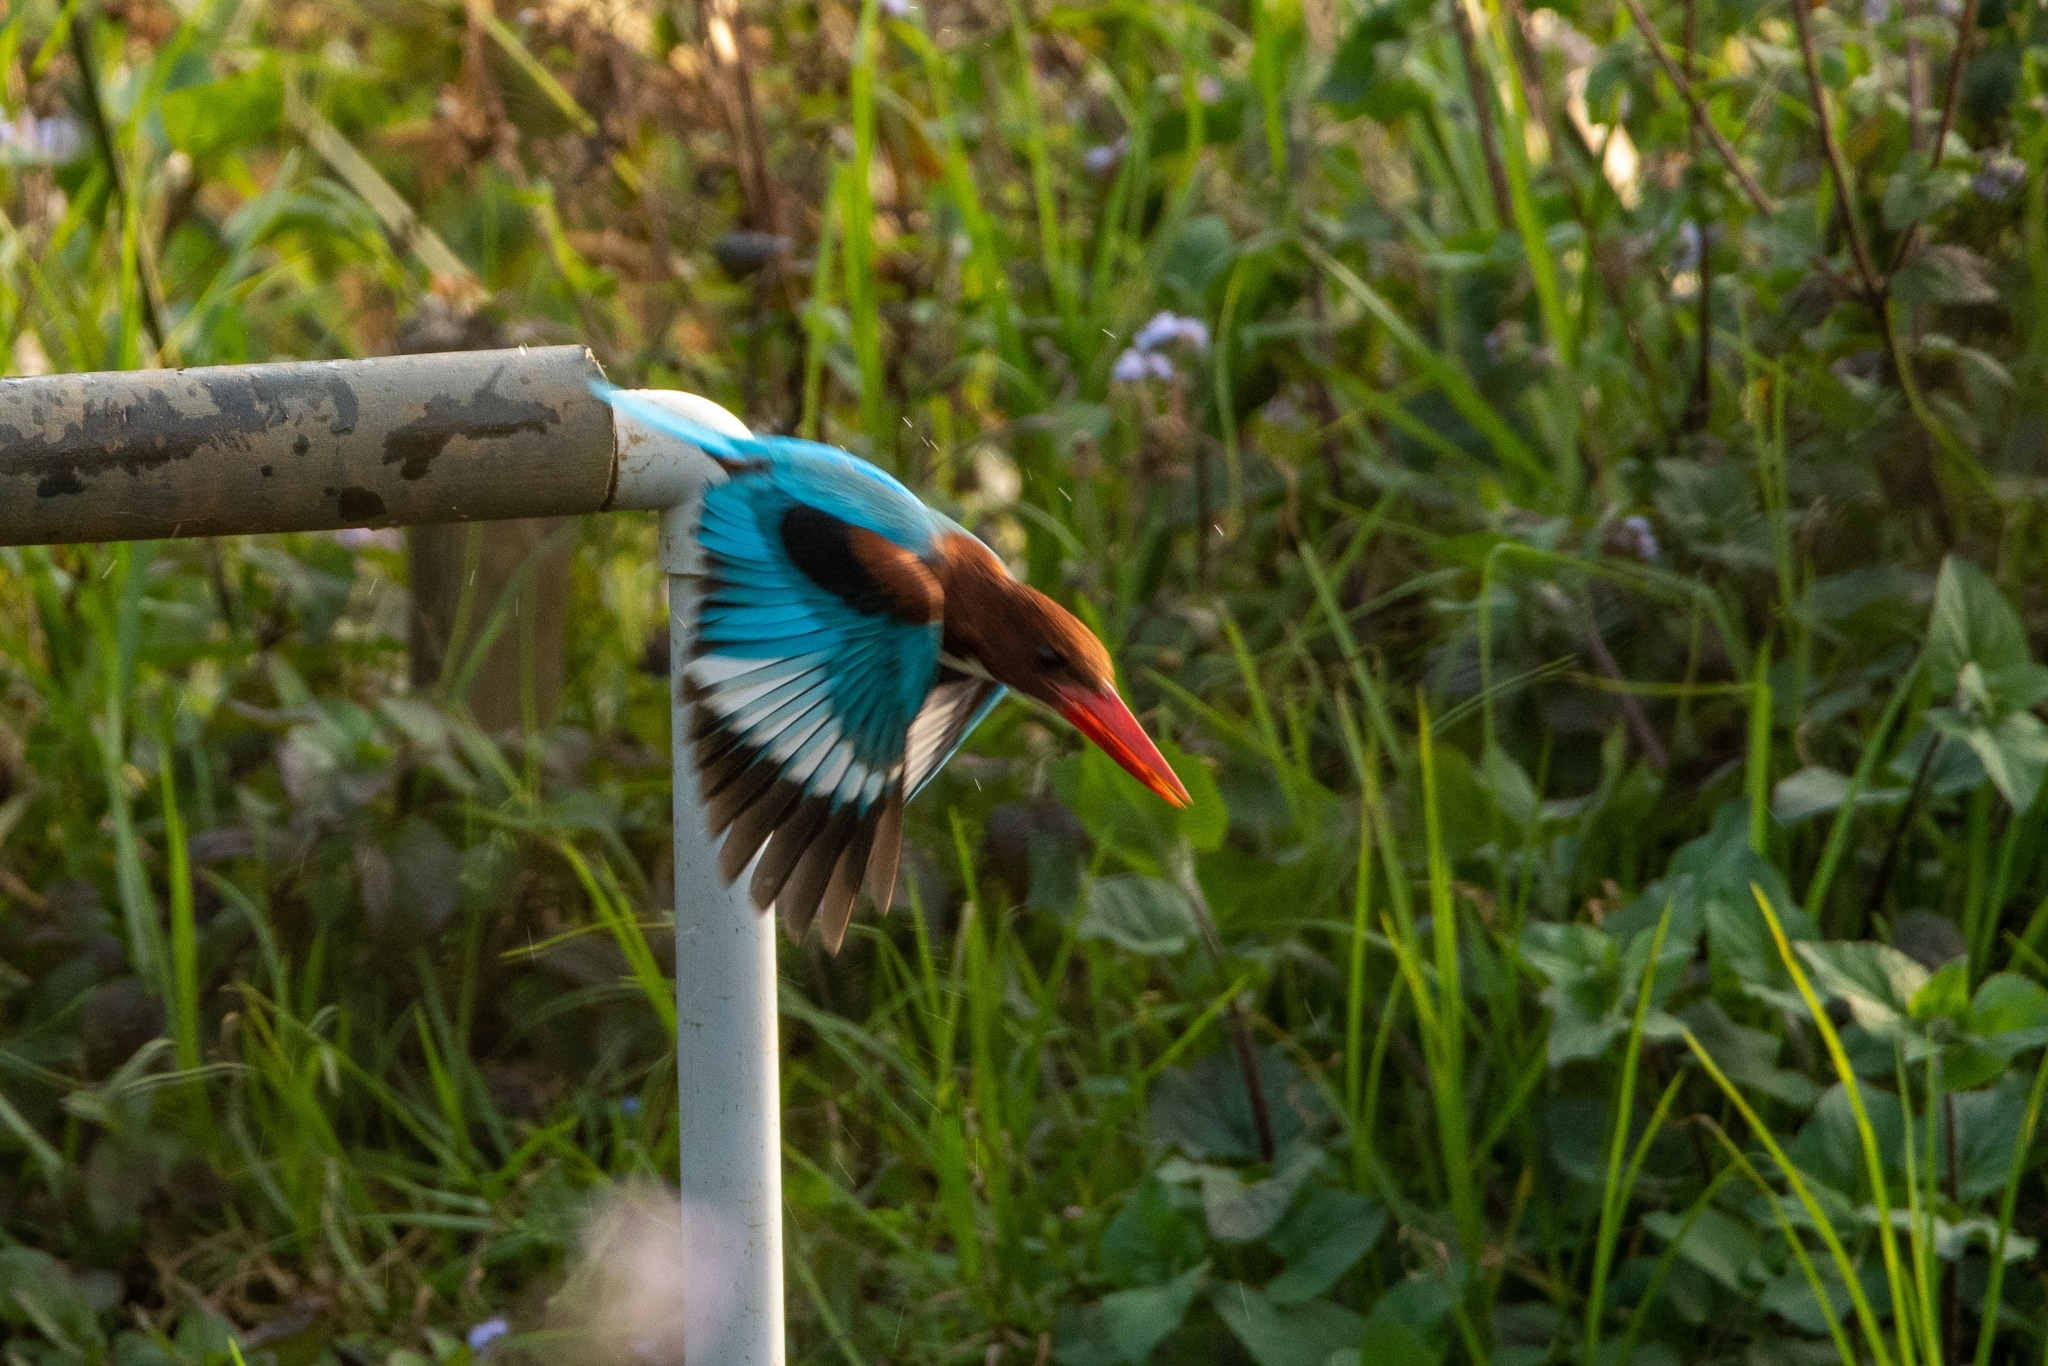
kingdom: Animalia
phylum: Chordata
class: Aves
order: Coraciiformes
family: Alcedinidae
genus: Halcyon
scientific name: Halcyon smyrnensis
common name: White-throated kingfisher
